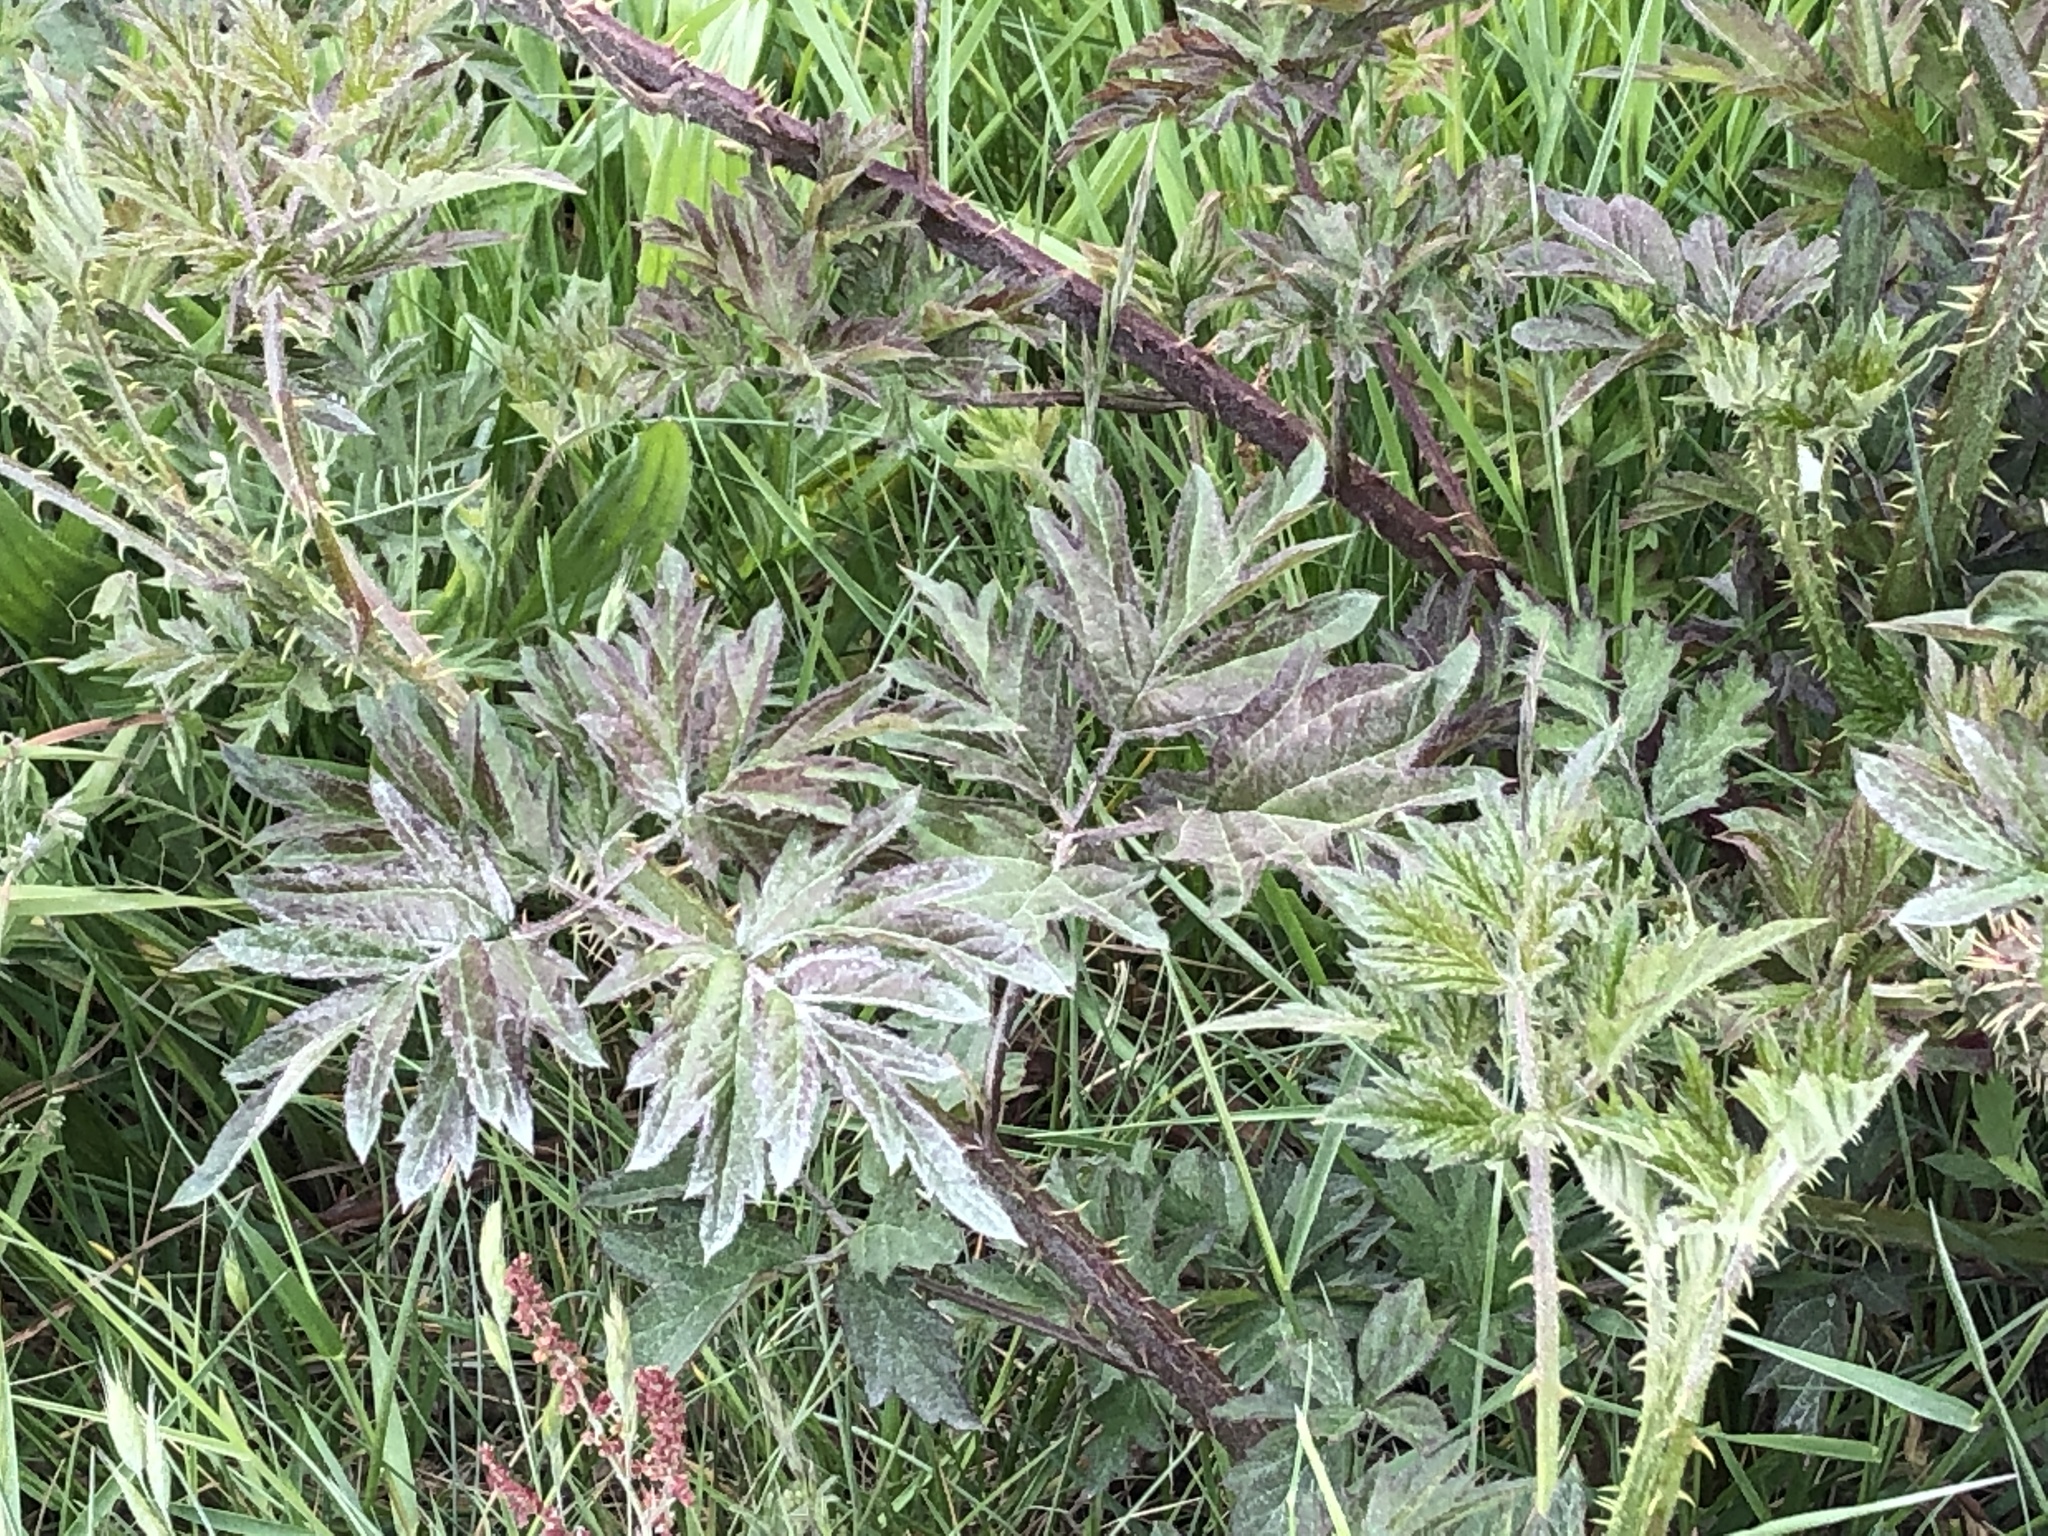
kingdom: Plantae
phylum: Tracheophyta
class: Magnoliopsida
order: Rosales
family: Rosaceae
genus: Rubus
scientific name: Rubus laciniatus
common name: Evergreen blackberry
